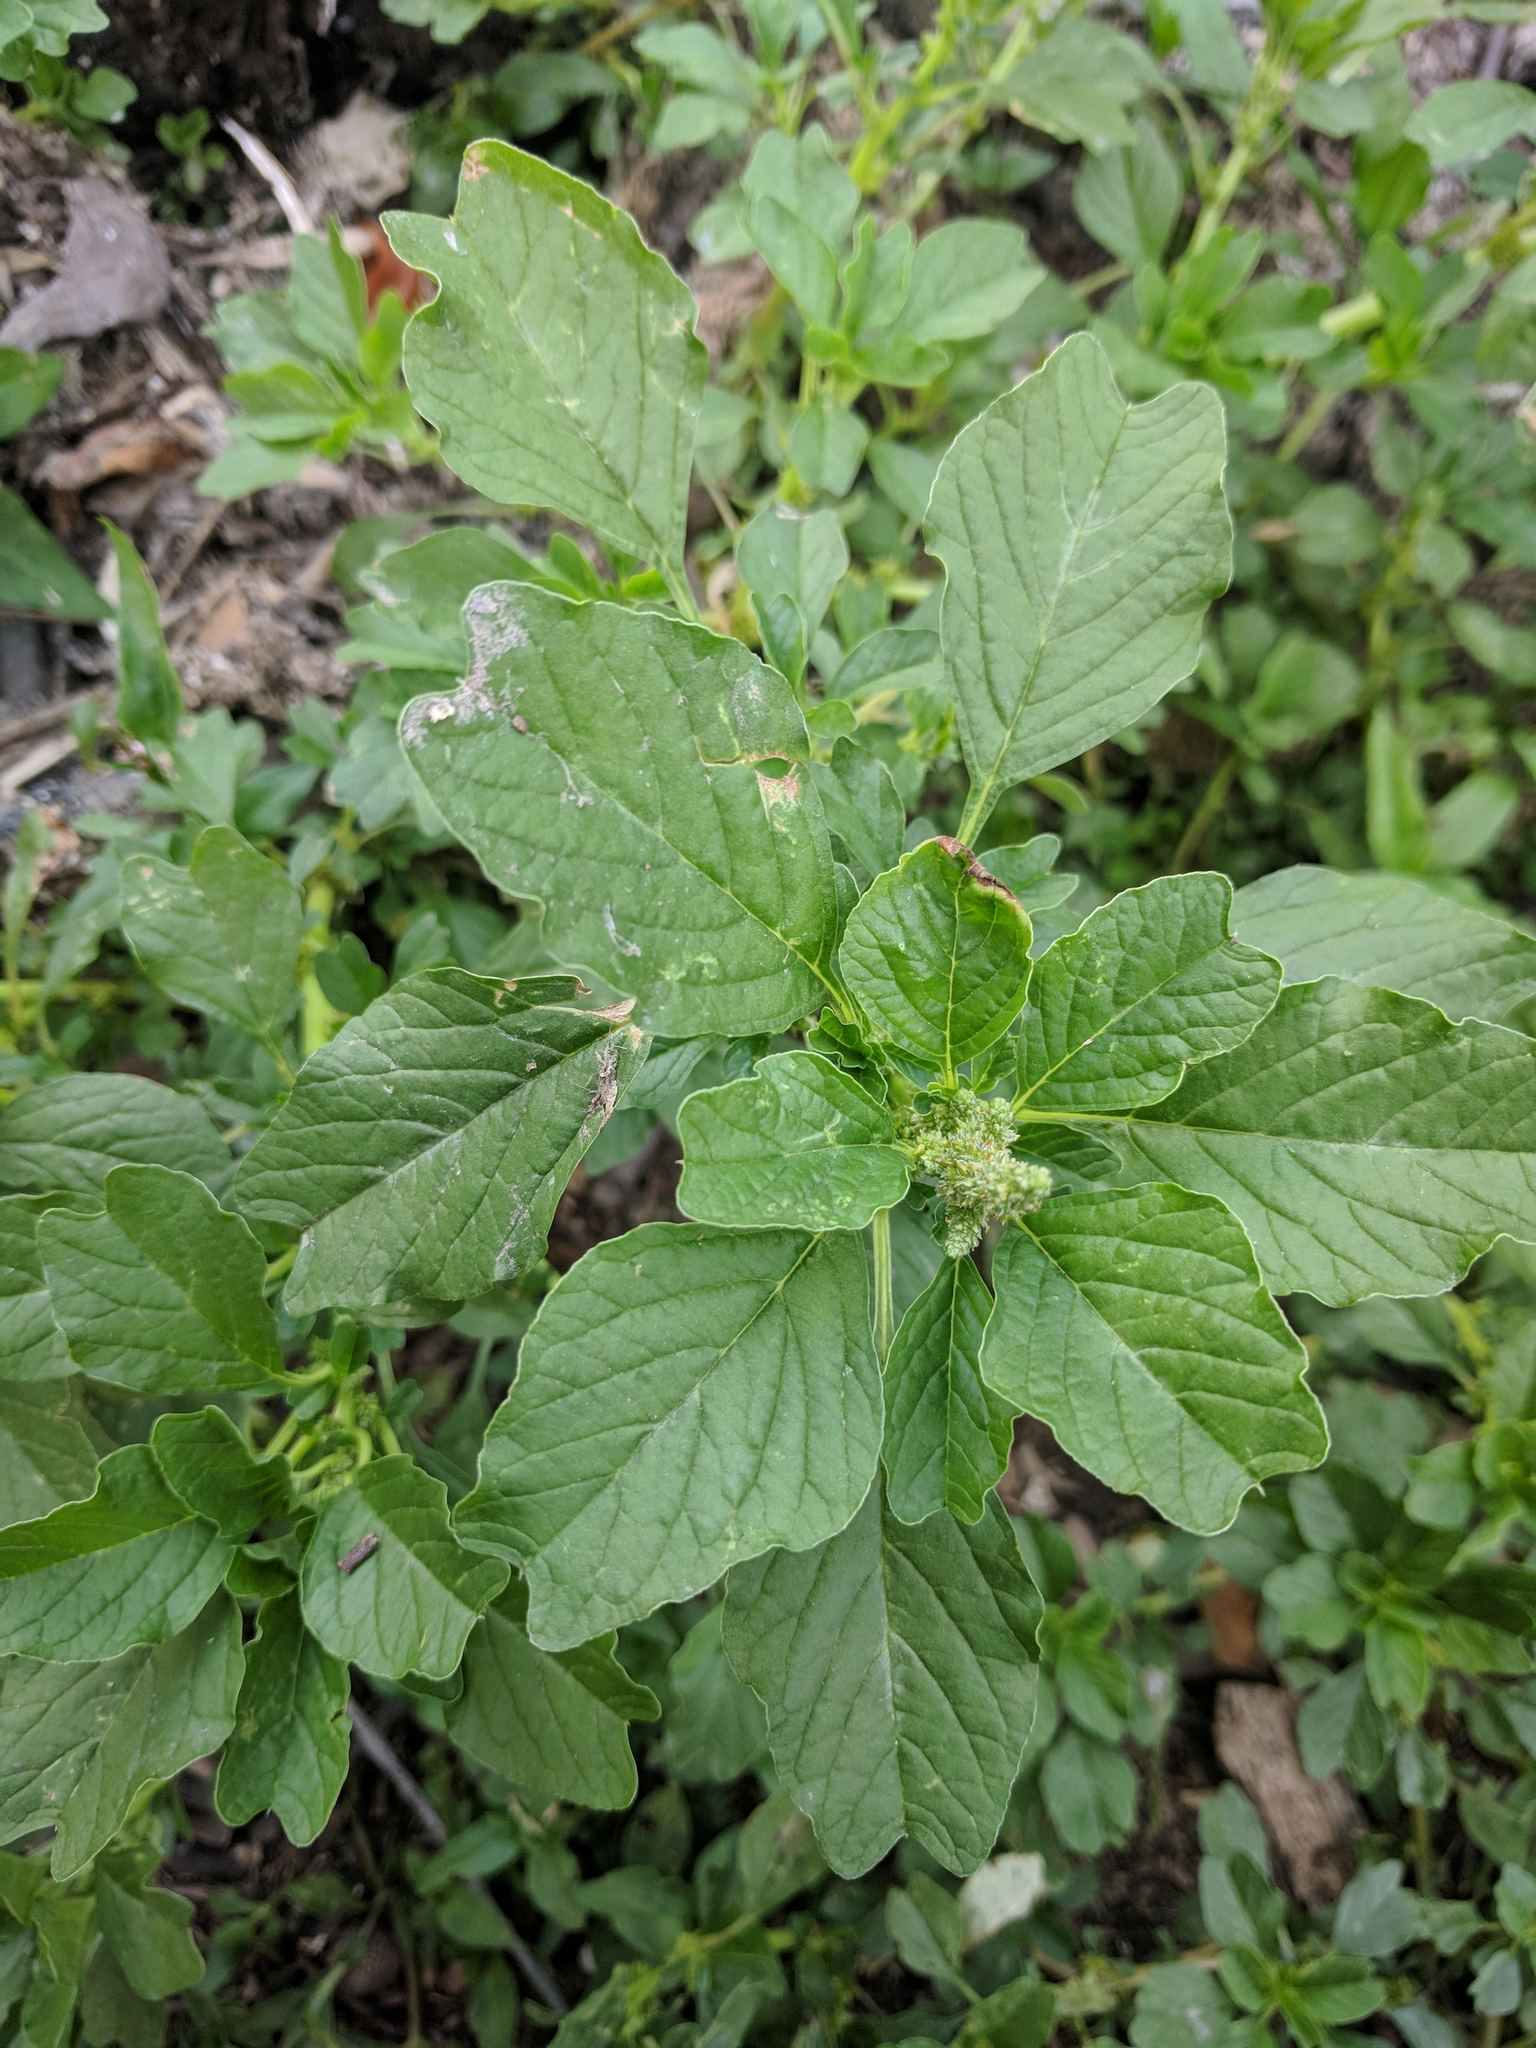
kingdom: Plantae
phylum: Tracheophyta
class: Magnoliopsida
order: Caryophyllales
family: Amaranthaceae
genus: Amaranthus
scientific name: Amaranthus blitum
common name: Purple amaranth
